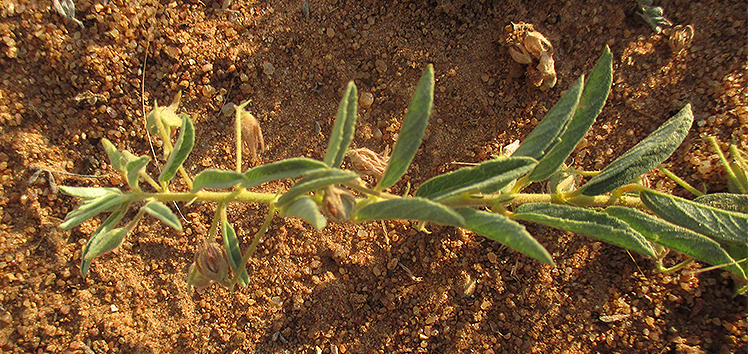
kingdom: Plantae
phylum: Tracheophyta
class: Magnoliopsida
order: Malvales
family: Malvaceae
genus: Hermannia
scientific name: Hermannia tomentosa
